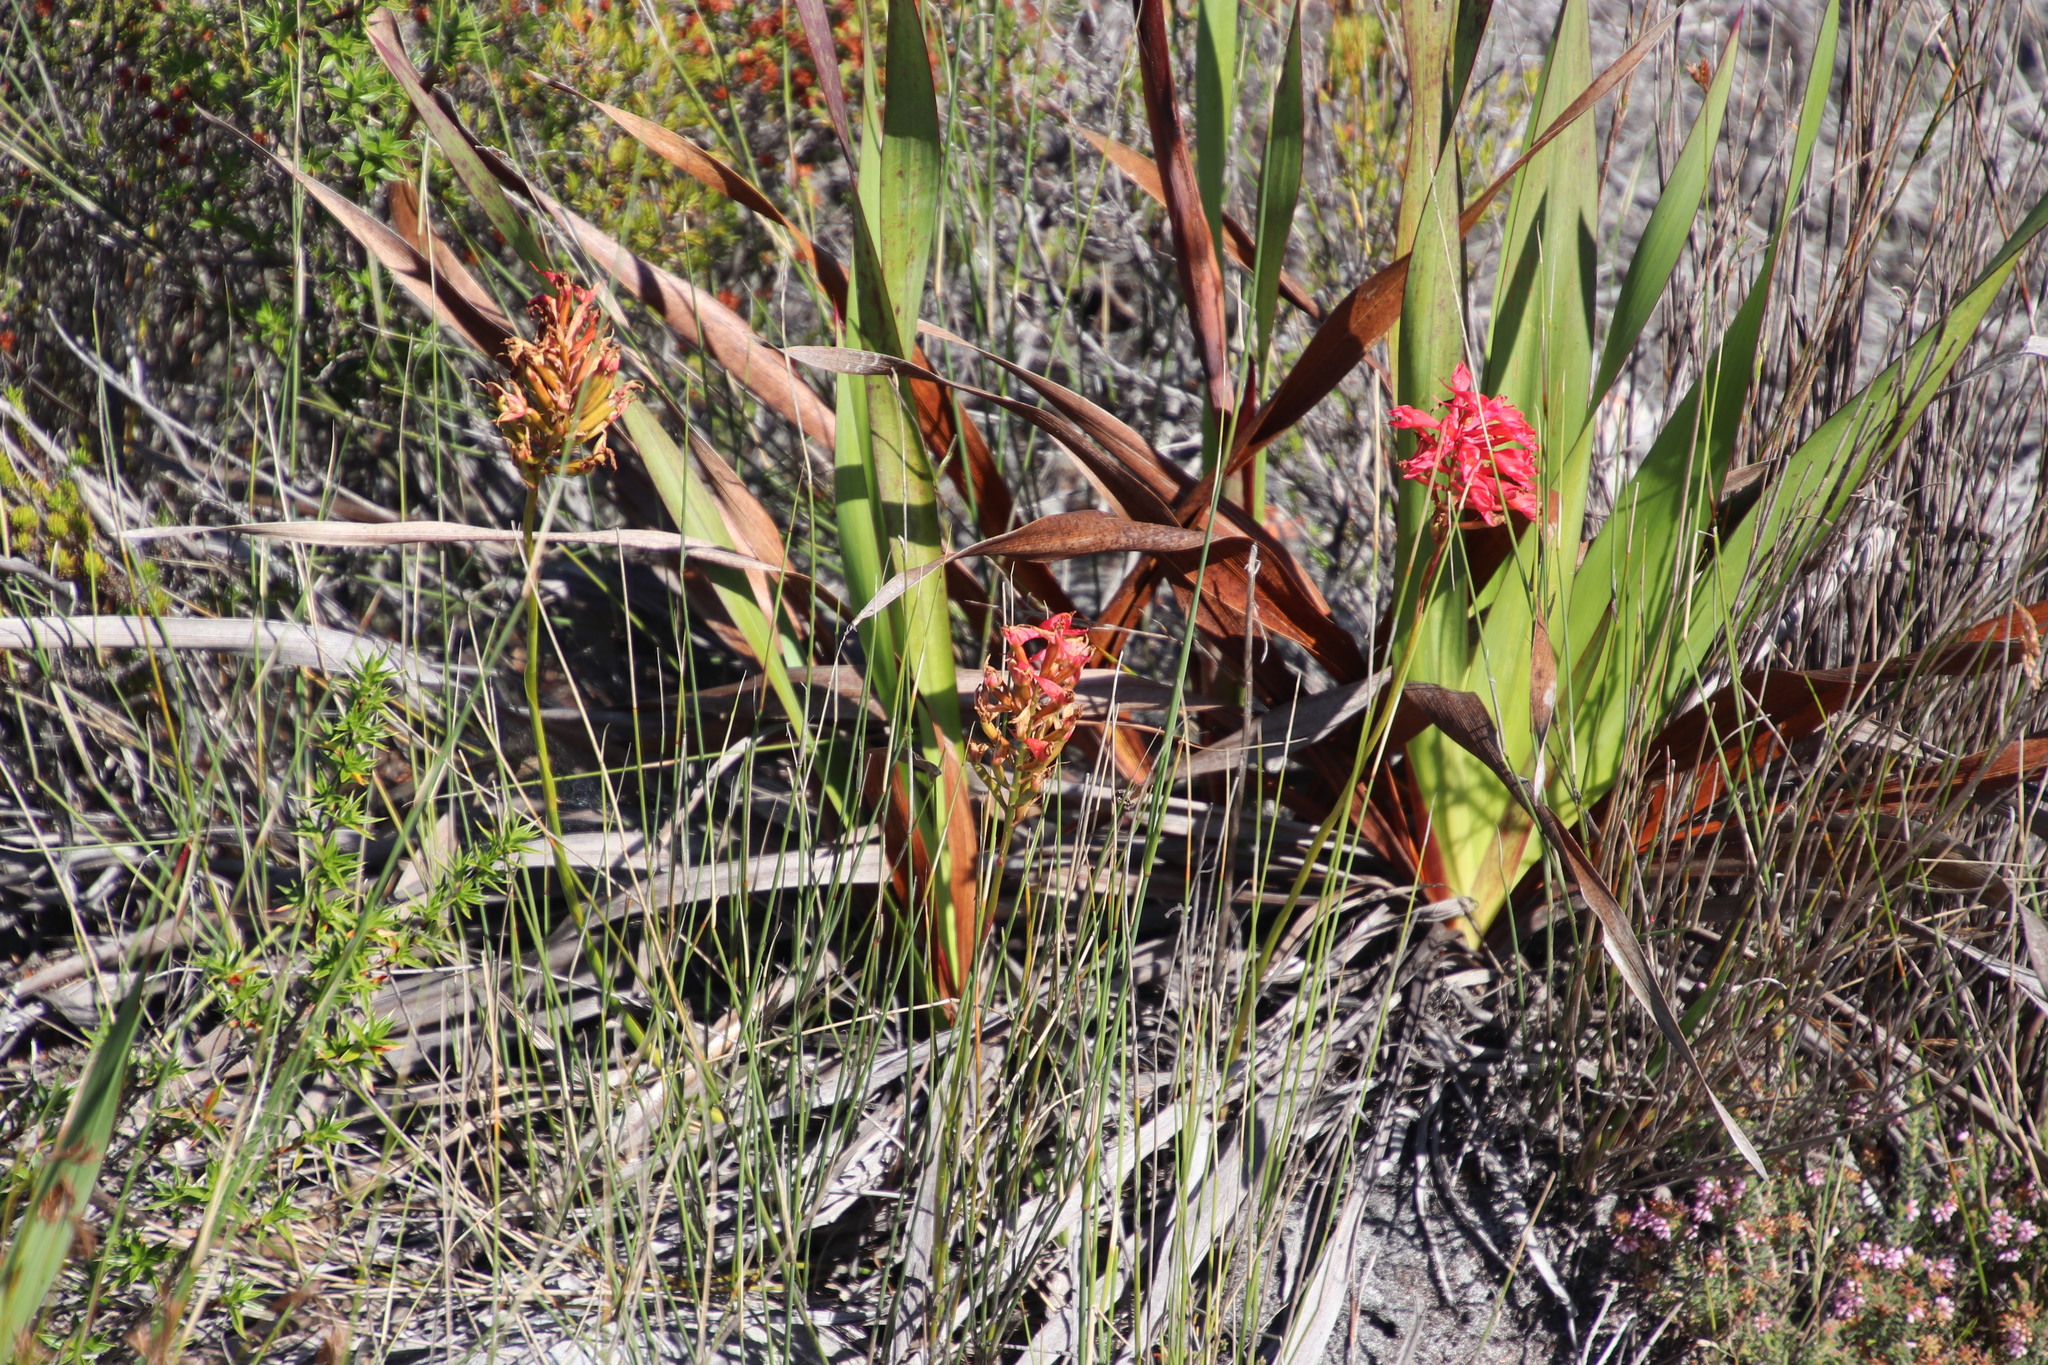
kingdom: Plantae
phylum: Tracheophyta
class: Liliopsida
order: Asparagales
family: Orchidaceae
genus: Disa
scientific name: Disa ferruginea
